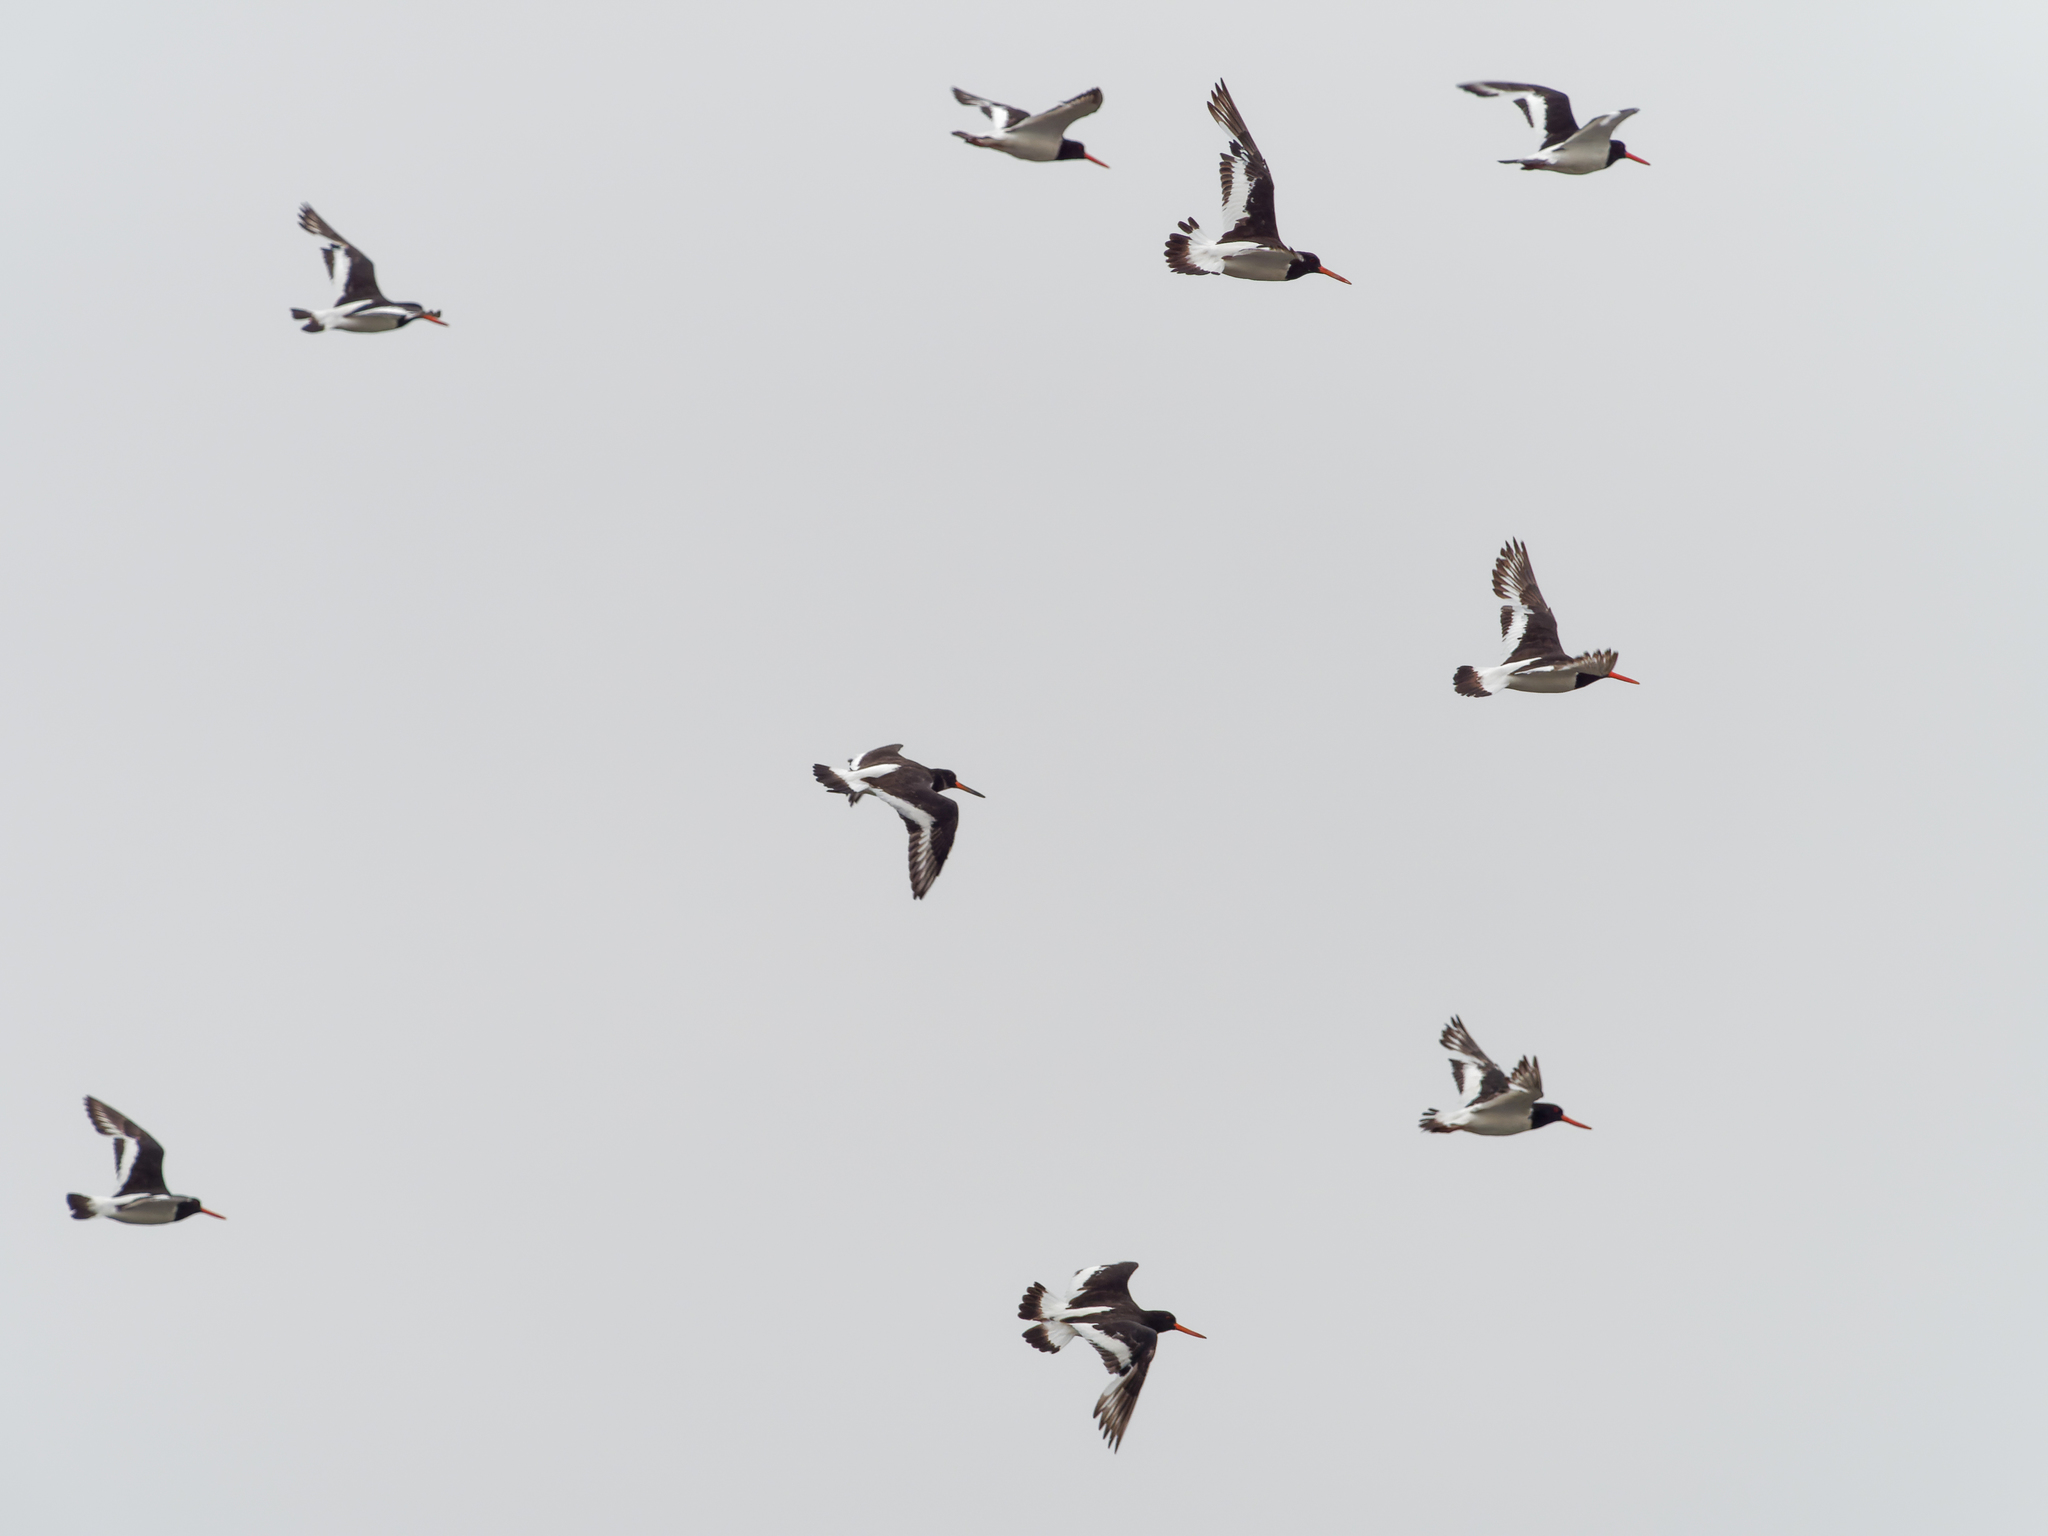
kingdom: Animalia
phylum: Chordata
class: Aves
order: Charadriiformes
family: Haematopodidae
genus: Haematopus
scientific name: Haematopus ostralegus
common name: Eurasian oystercatcher
